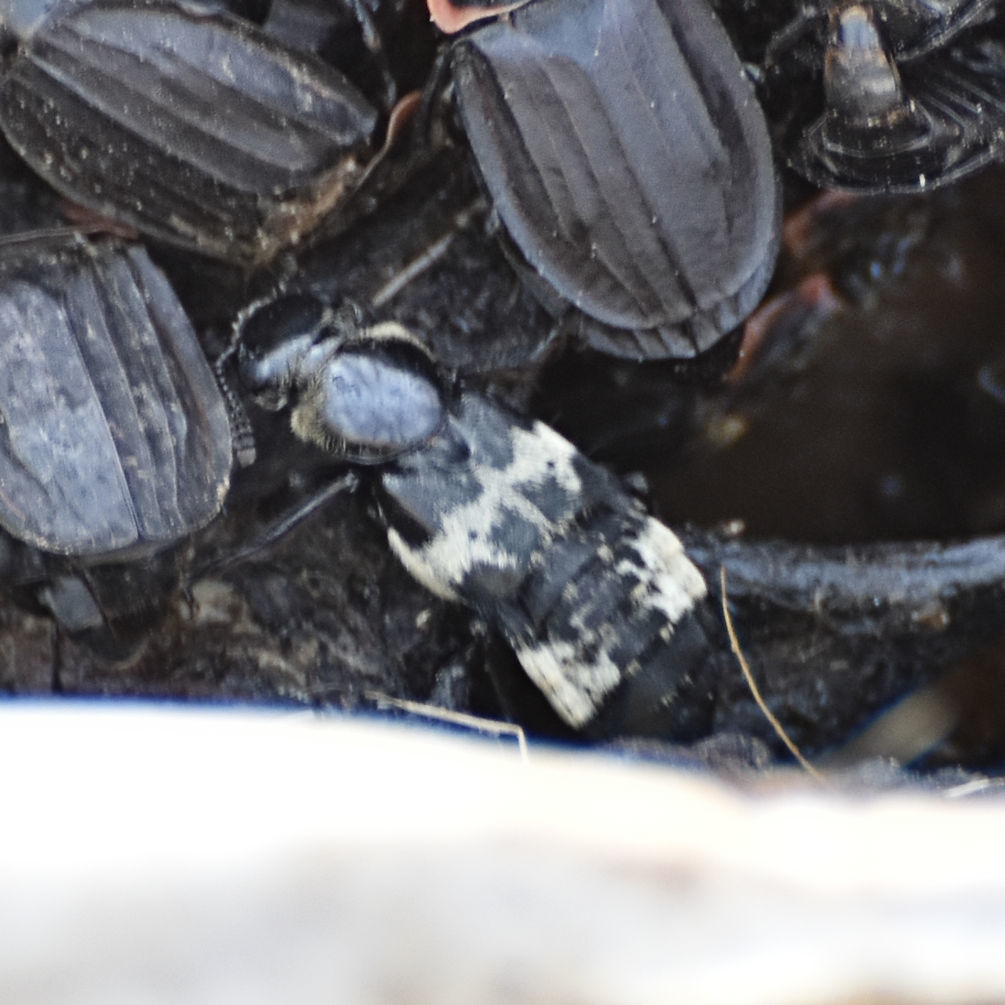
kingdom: Animalia
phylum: Arthropoda
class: Insecta
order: Coleoptera
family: Staphylinidae
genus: Creophilus
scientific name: Creophilus maxillosus
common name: Hairy rove beetle
